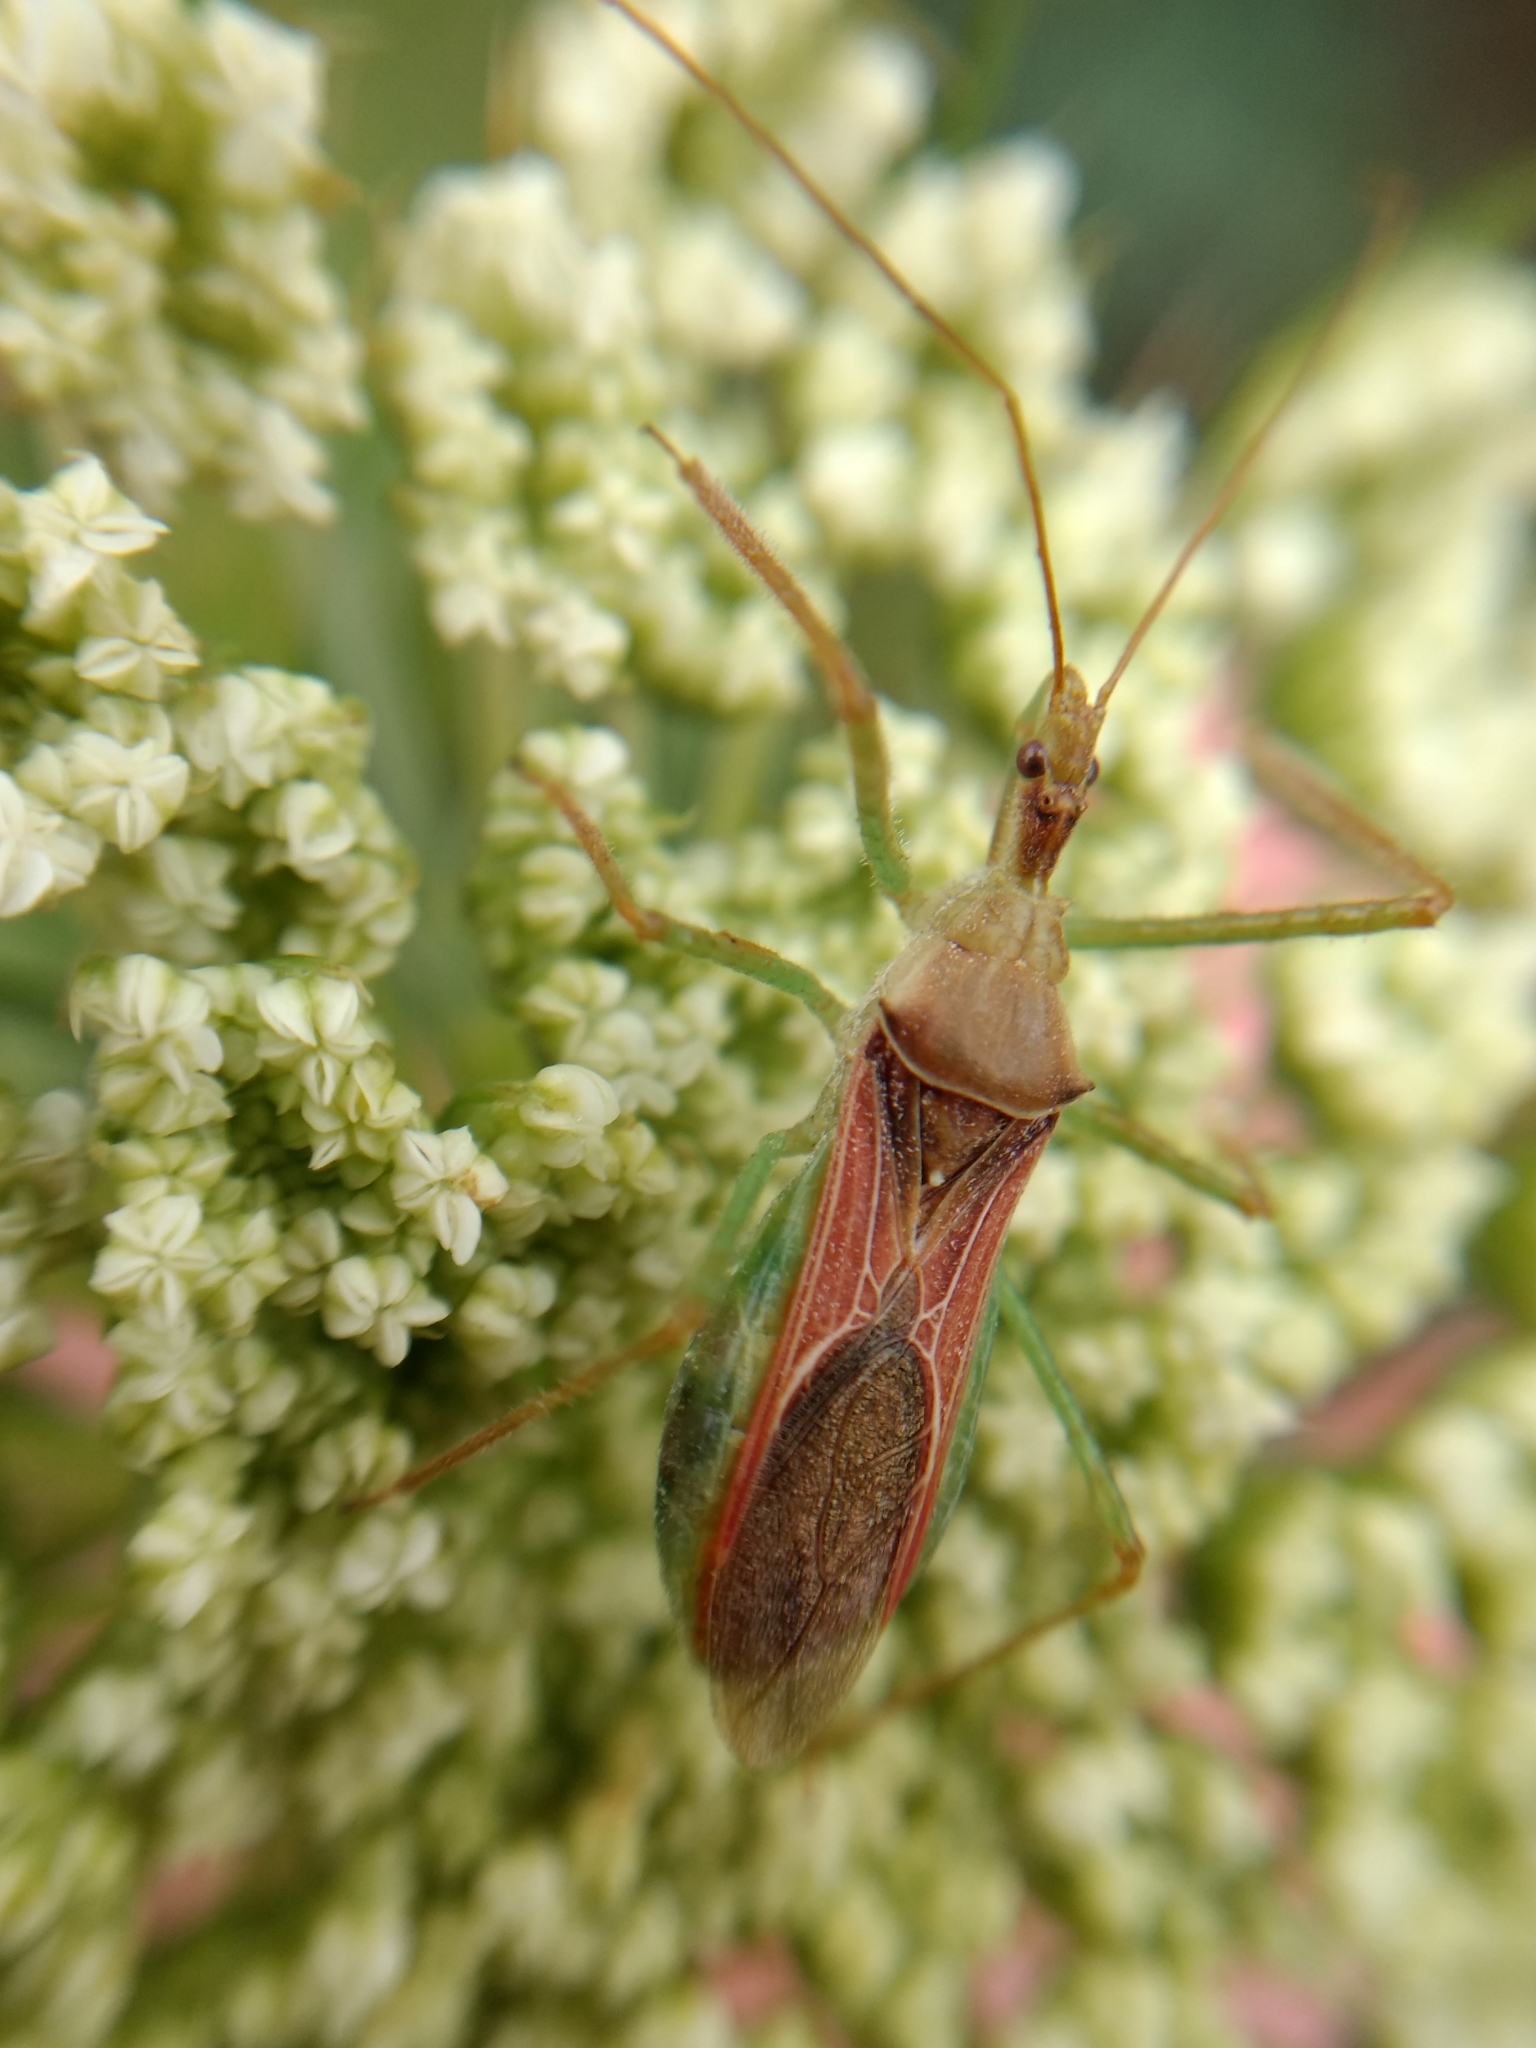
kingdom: Animalia
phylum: Arthropoda
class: Insecta
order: Hemiptera
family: Reduviidae
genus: Zelus
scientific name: Zelus renardii
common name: Assassin bug
